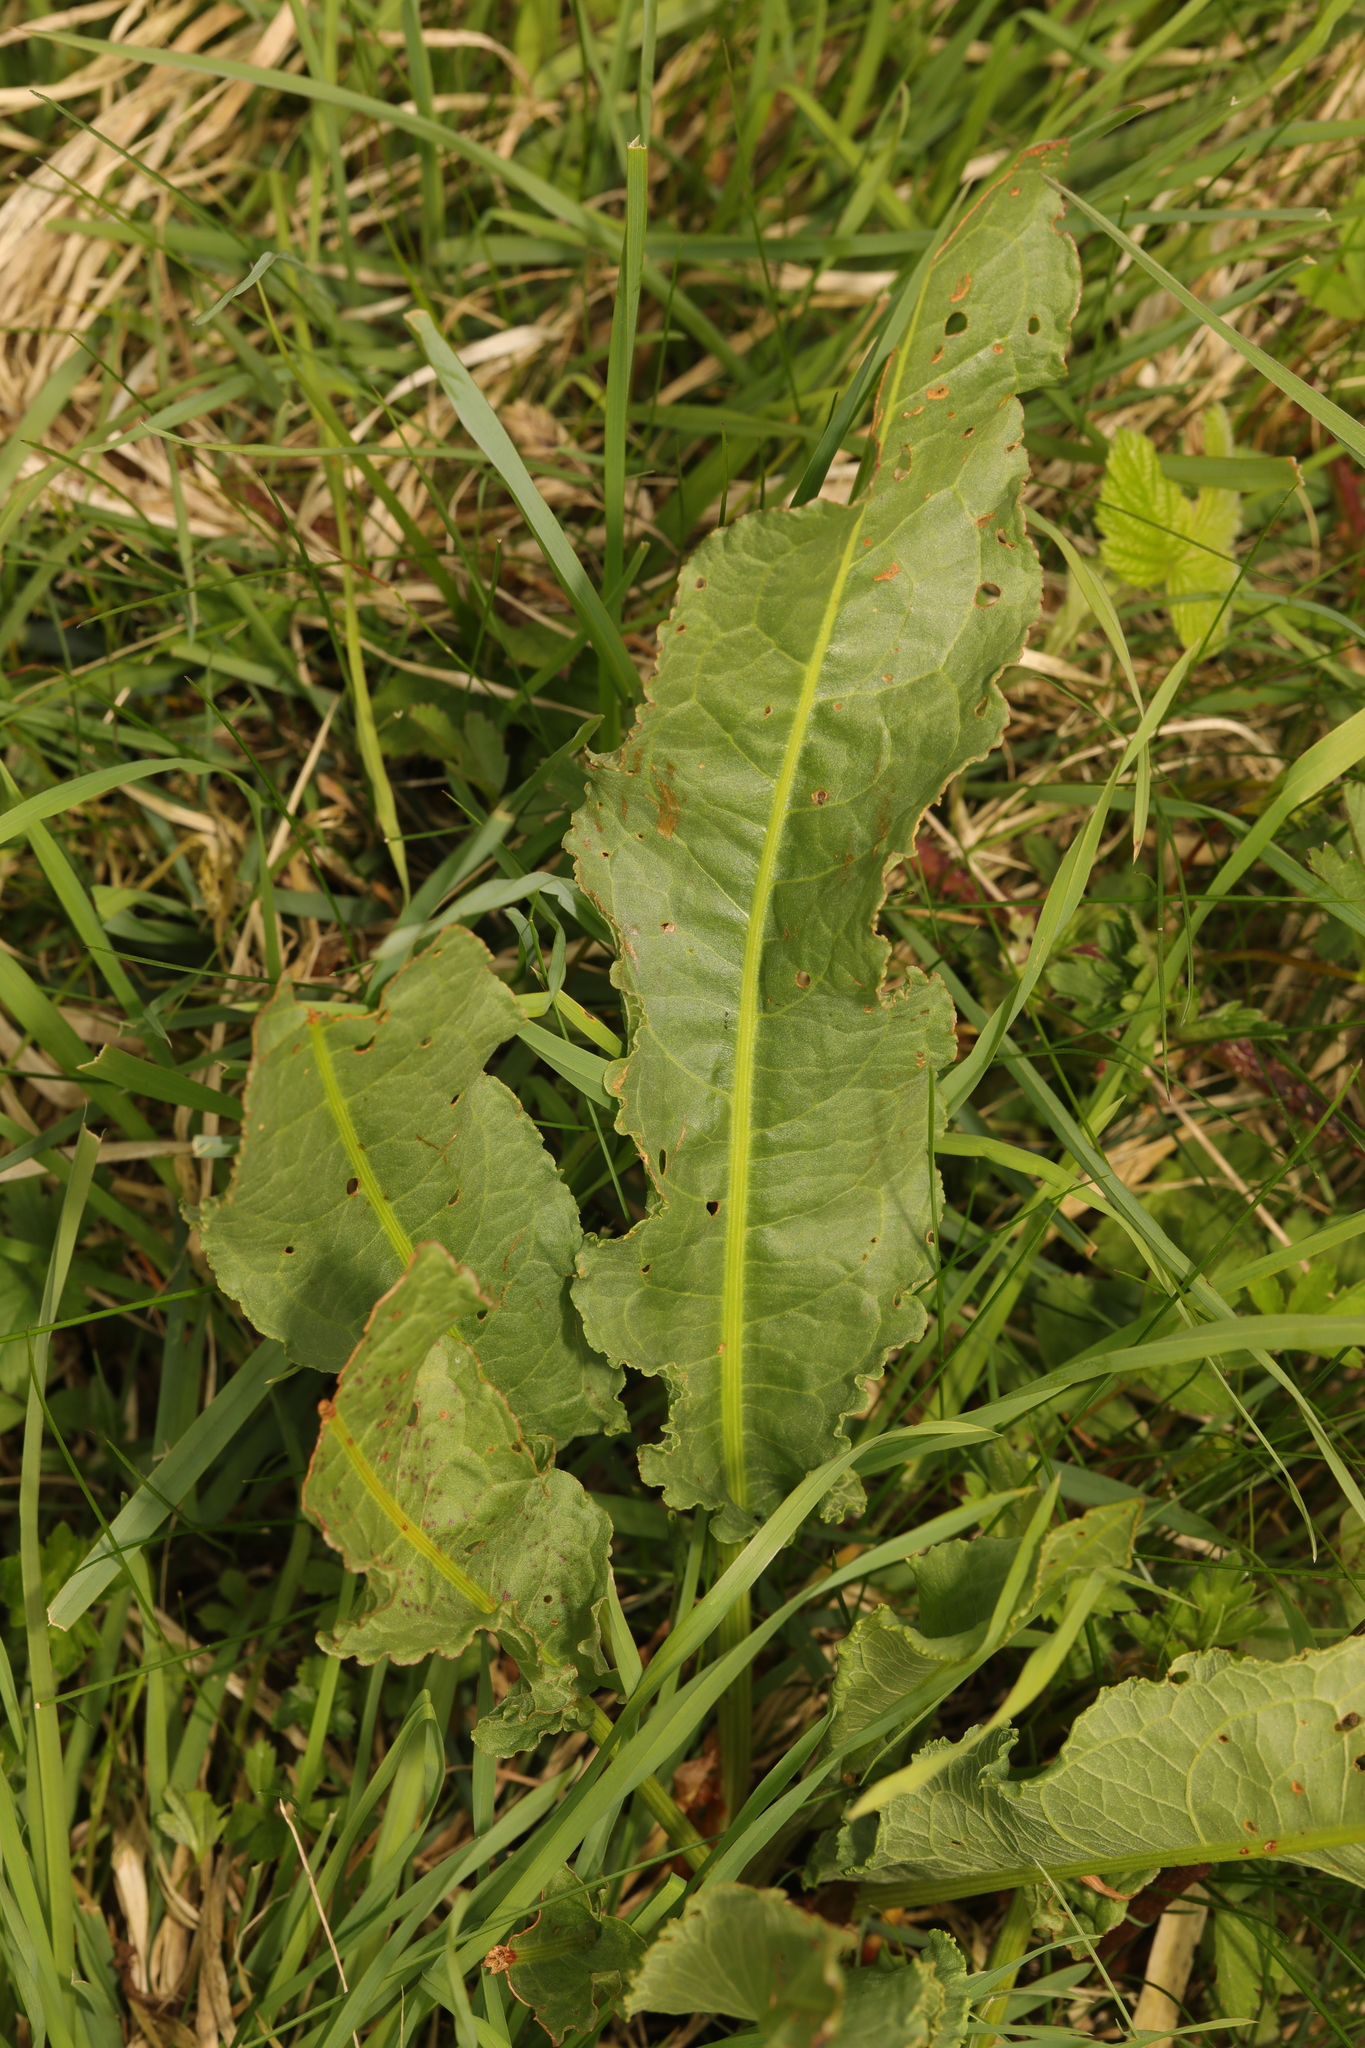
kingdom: Plantae
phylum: Tracheophyta
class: Magnoliopsida
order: Caryophyllales
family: Polygonaceae
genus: Rumex
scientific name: Rumex crispus
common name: Curled dock
